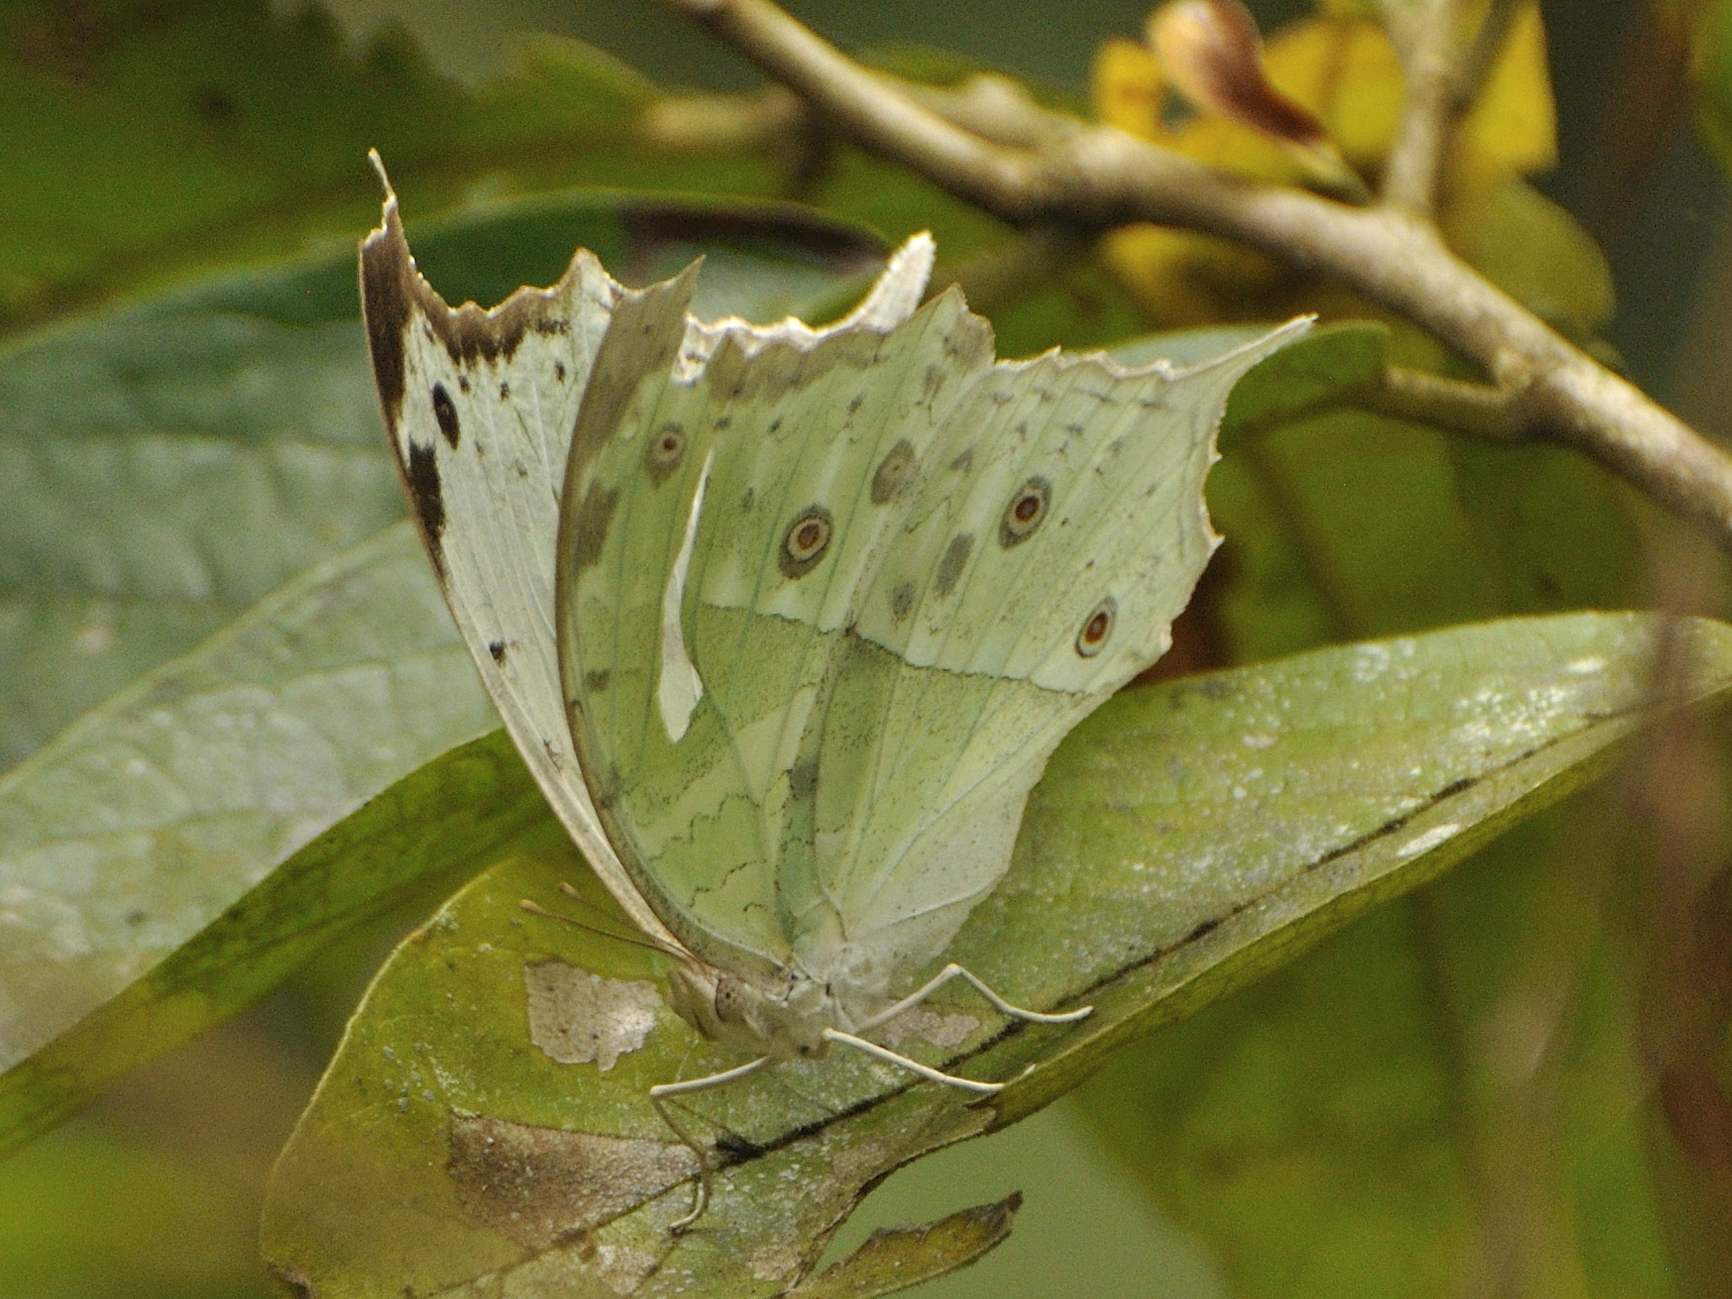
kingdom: Animalia
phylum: Arthropoda
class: Insecta
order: Lepidoptera
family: Nymphalidae
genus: Salamis
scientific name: Salamis Protogoniomorpha parhassus
